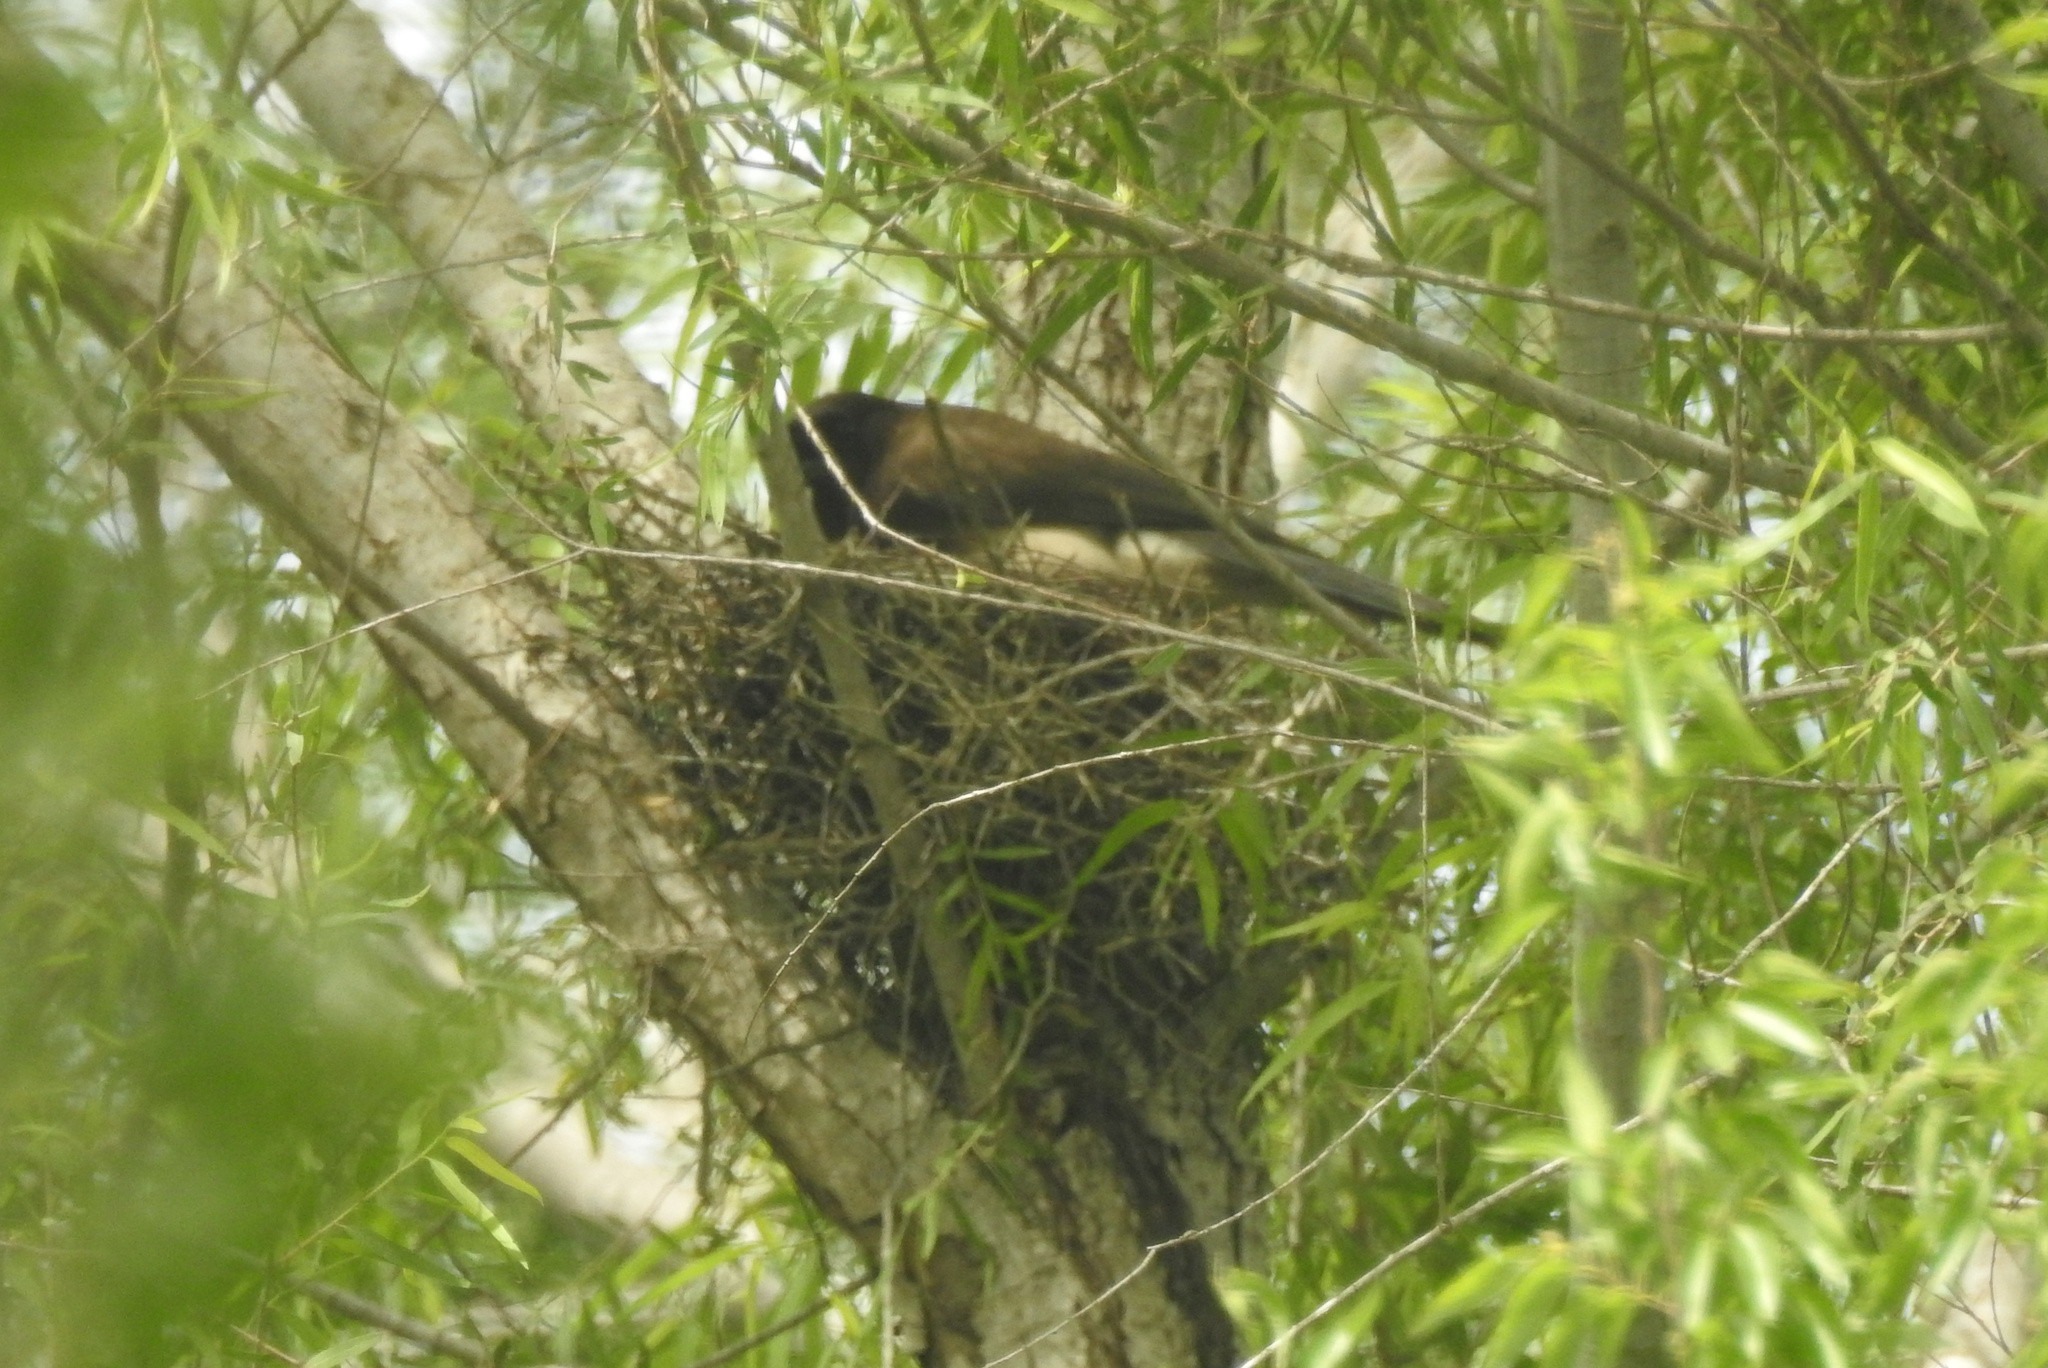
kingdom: Animalia
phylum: Chordata
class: Aves
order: Passeriformes
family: Corvidae
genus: Psilorhinus
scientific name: Psilorhinus morio
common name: Brown jay
